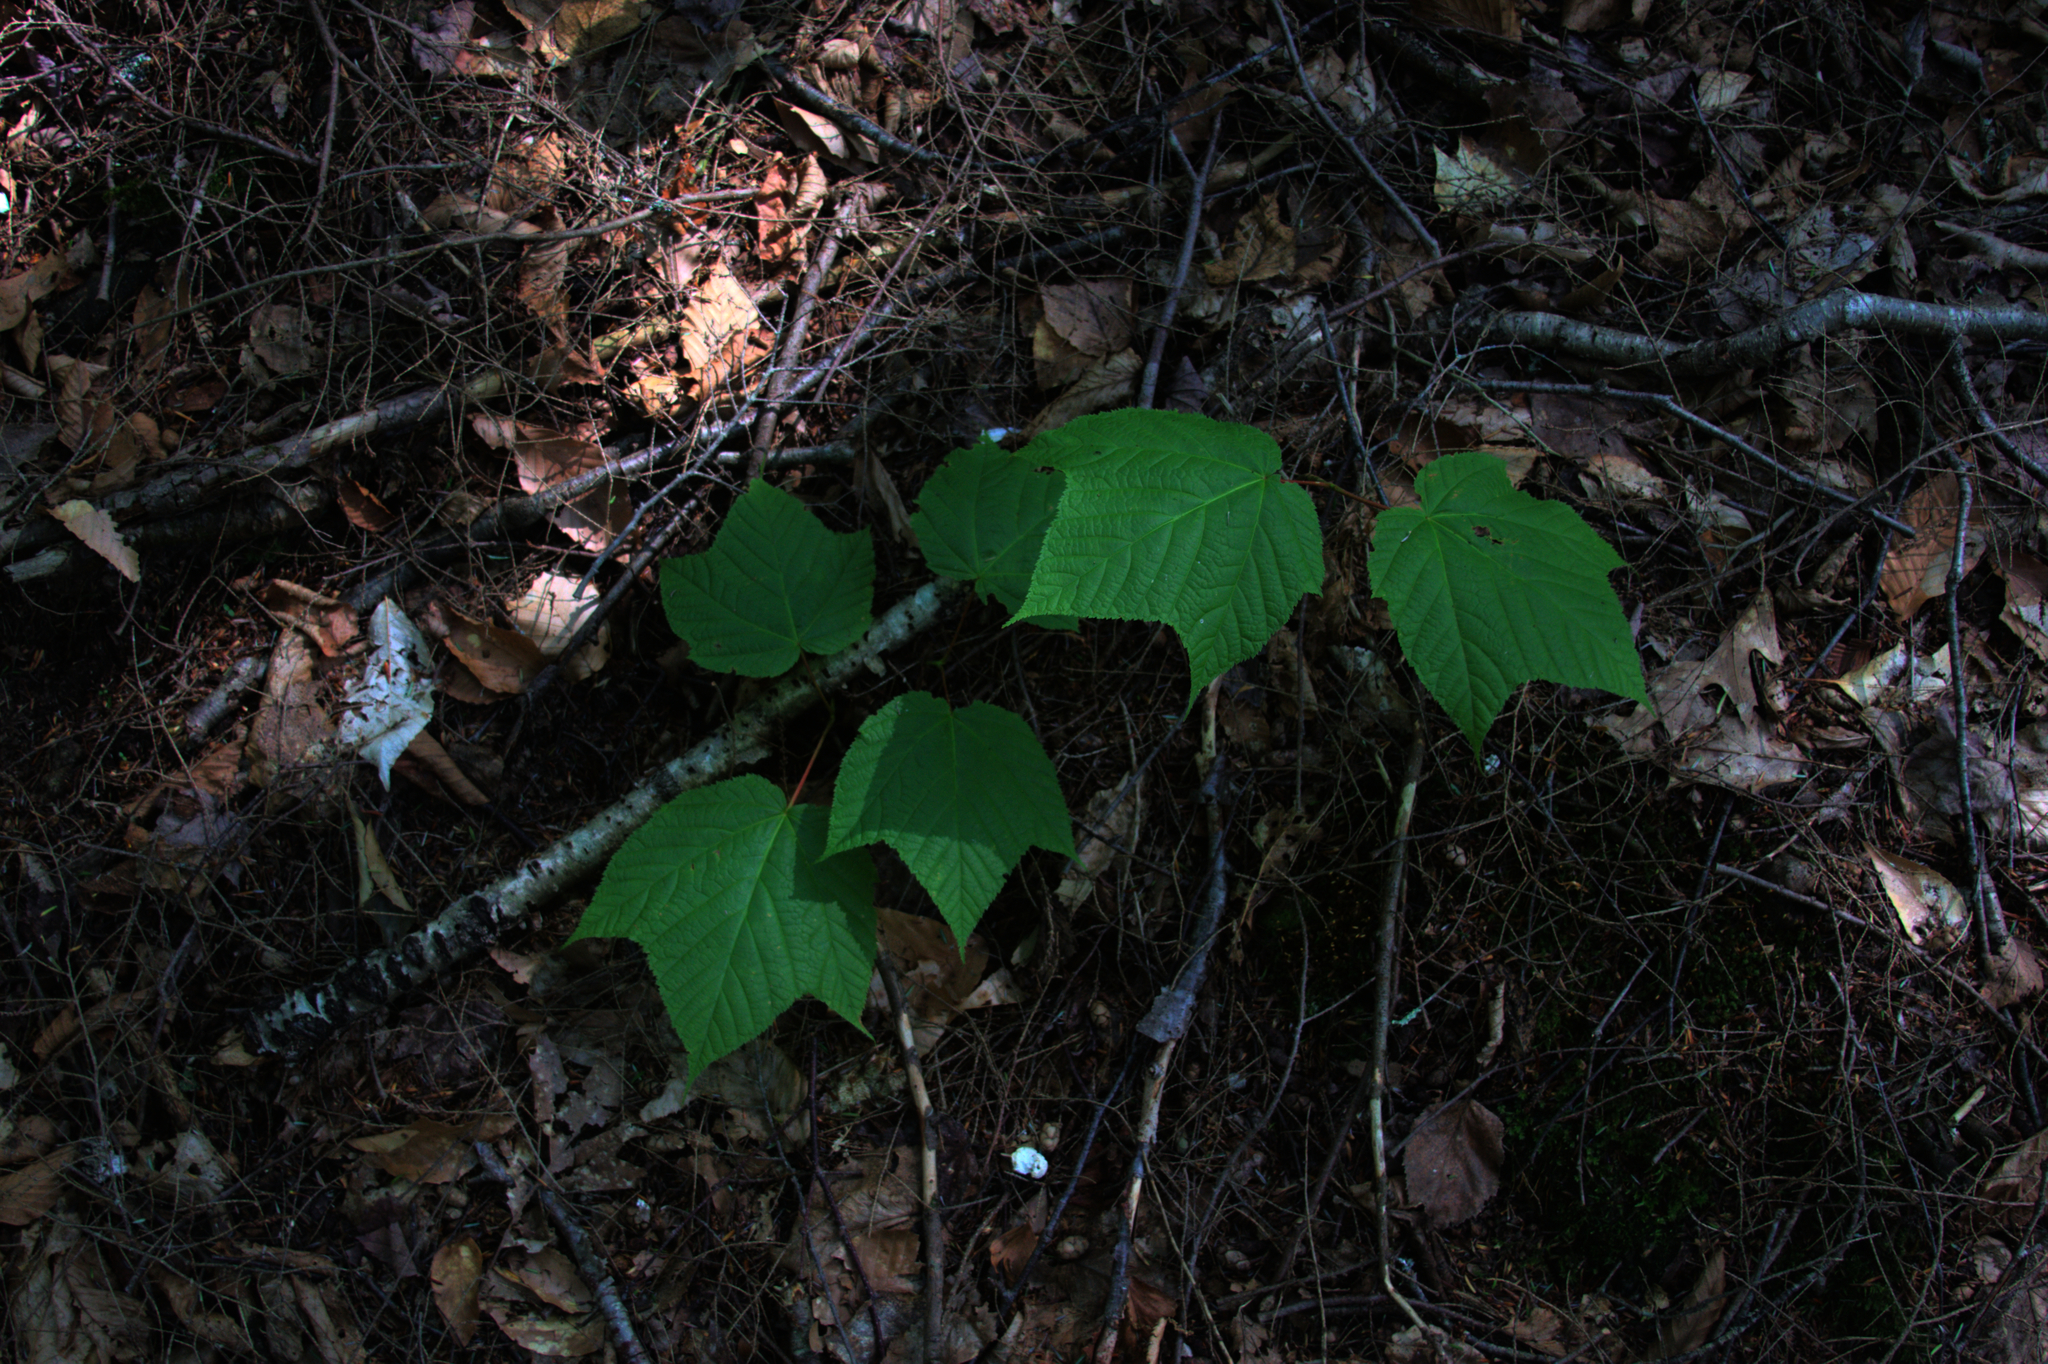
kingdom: Plantae
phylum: Tracheophyta
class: Magnoliopsida
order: Sapindales
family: Sapindaceae
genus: Acer
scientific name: Acer pensylvanicum
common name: Moosewood
